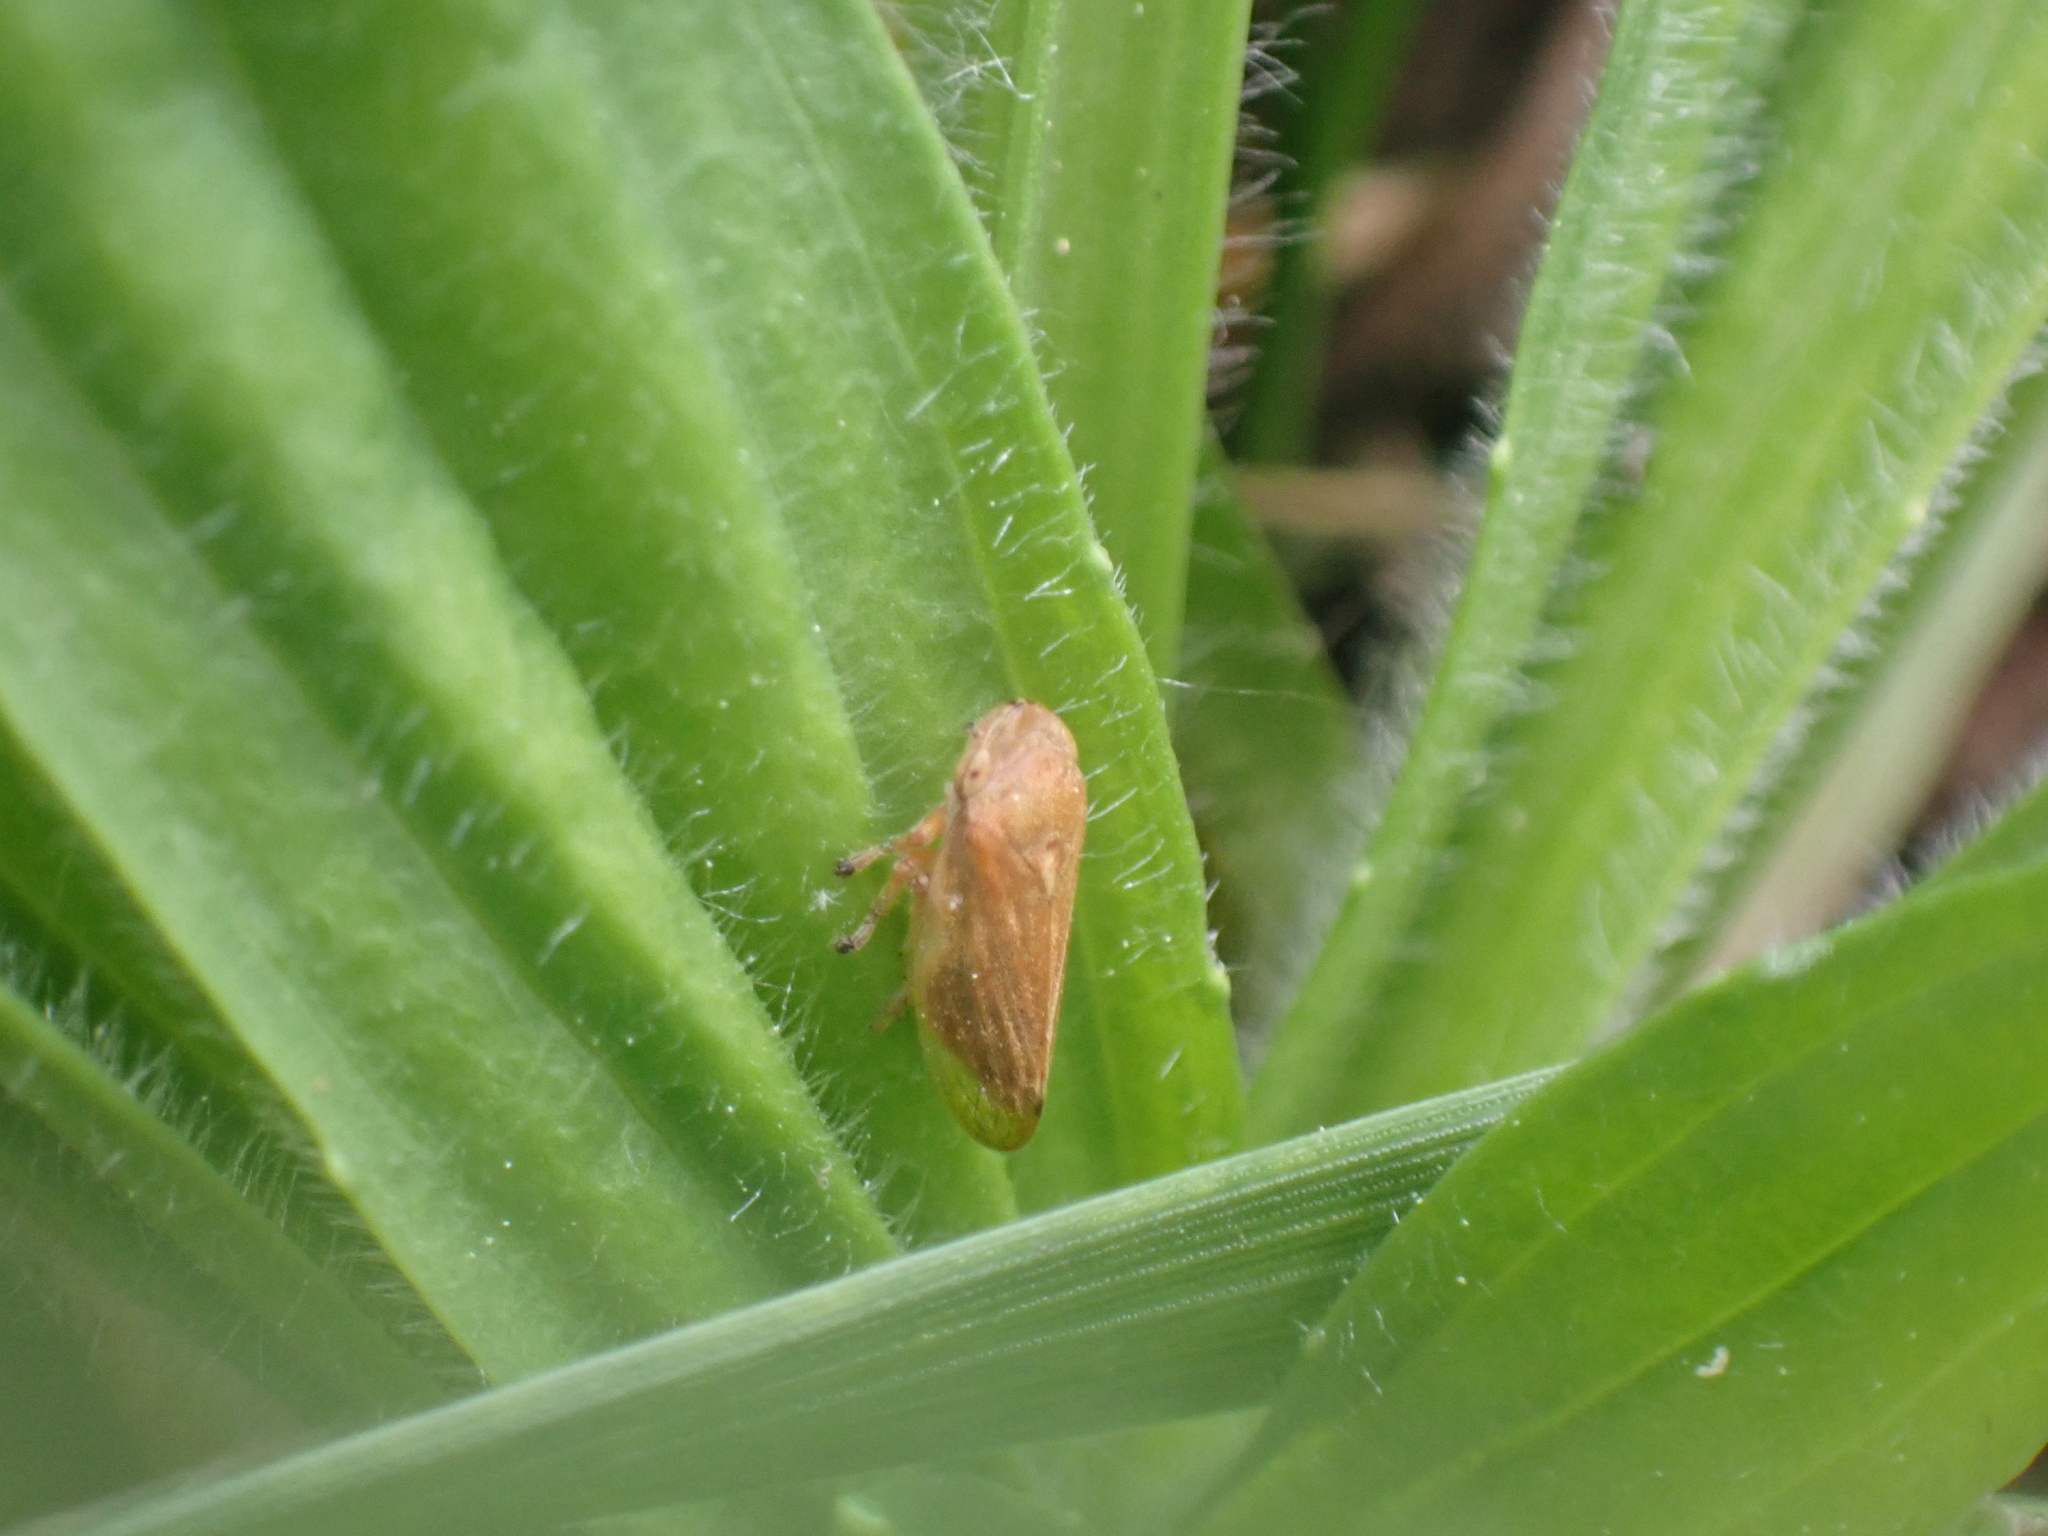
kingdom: Animalia
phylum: Arthropoda
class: Insecta
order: Hemiptera
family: Aphrophoridae
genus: Philaenus
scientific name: Philaenus spumarius
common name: Meadow spittlebug
